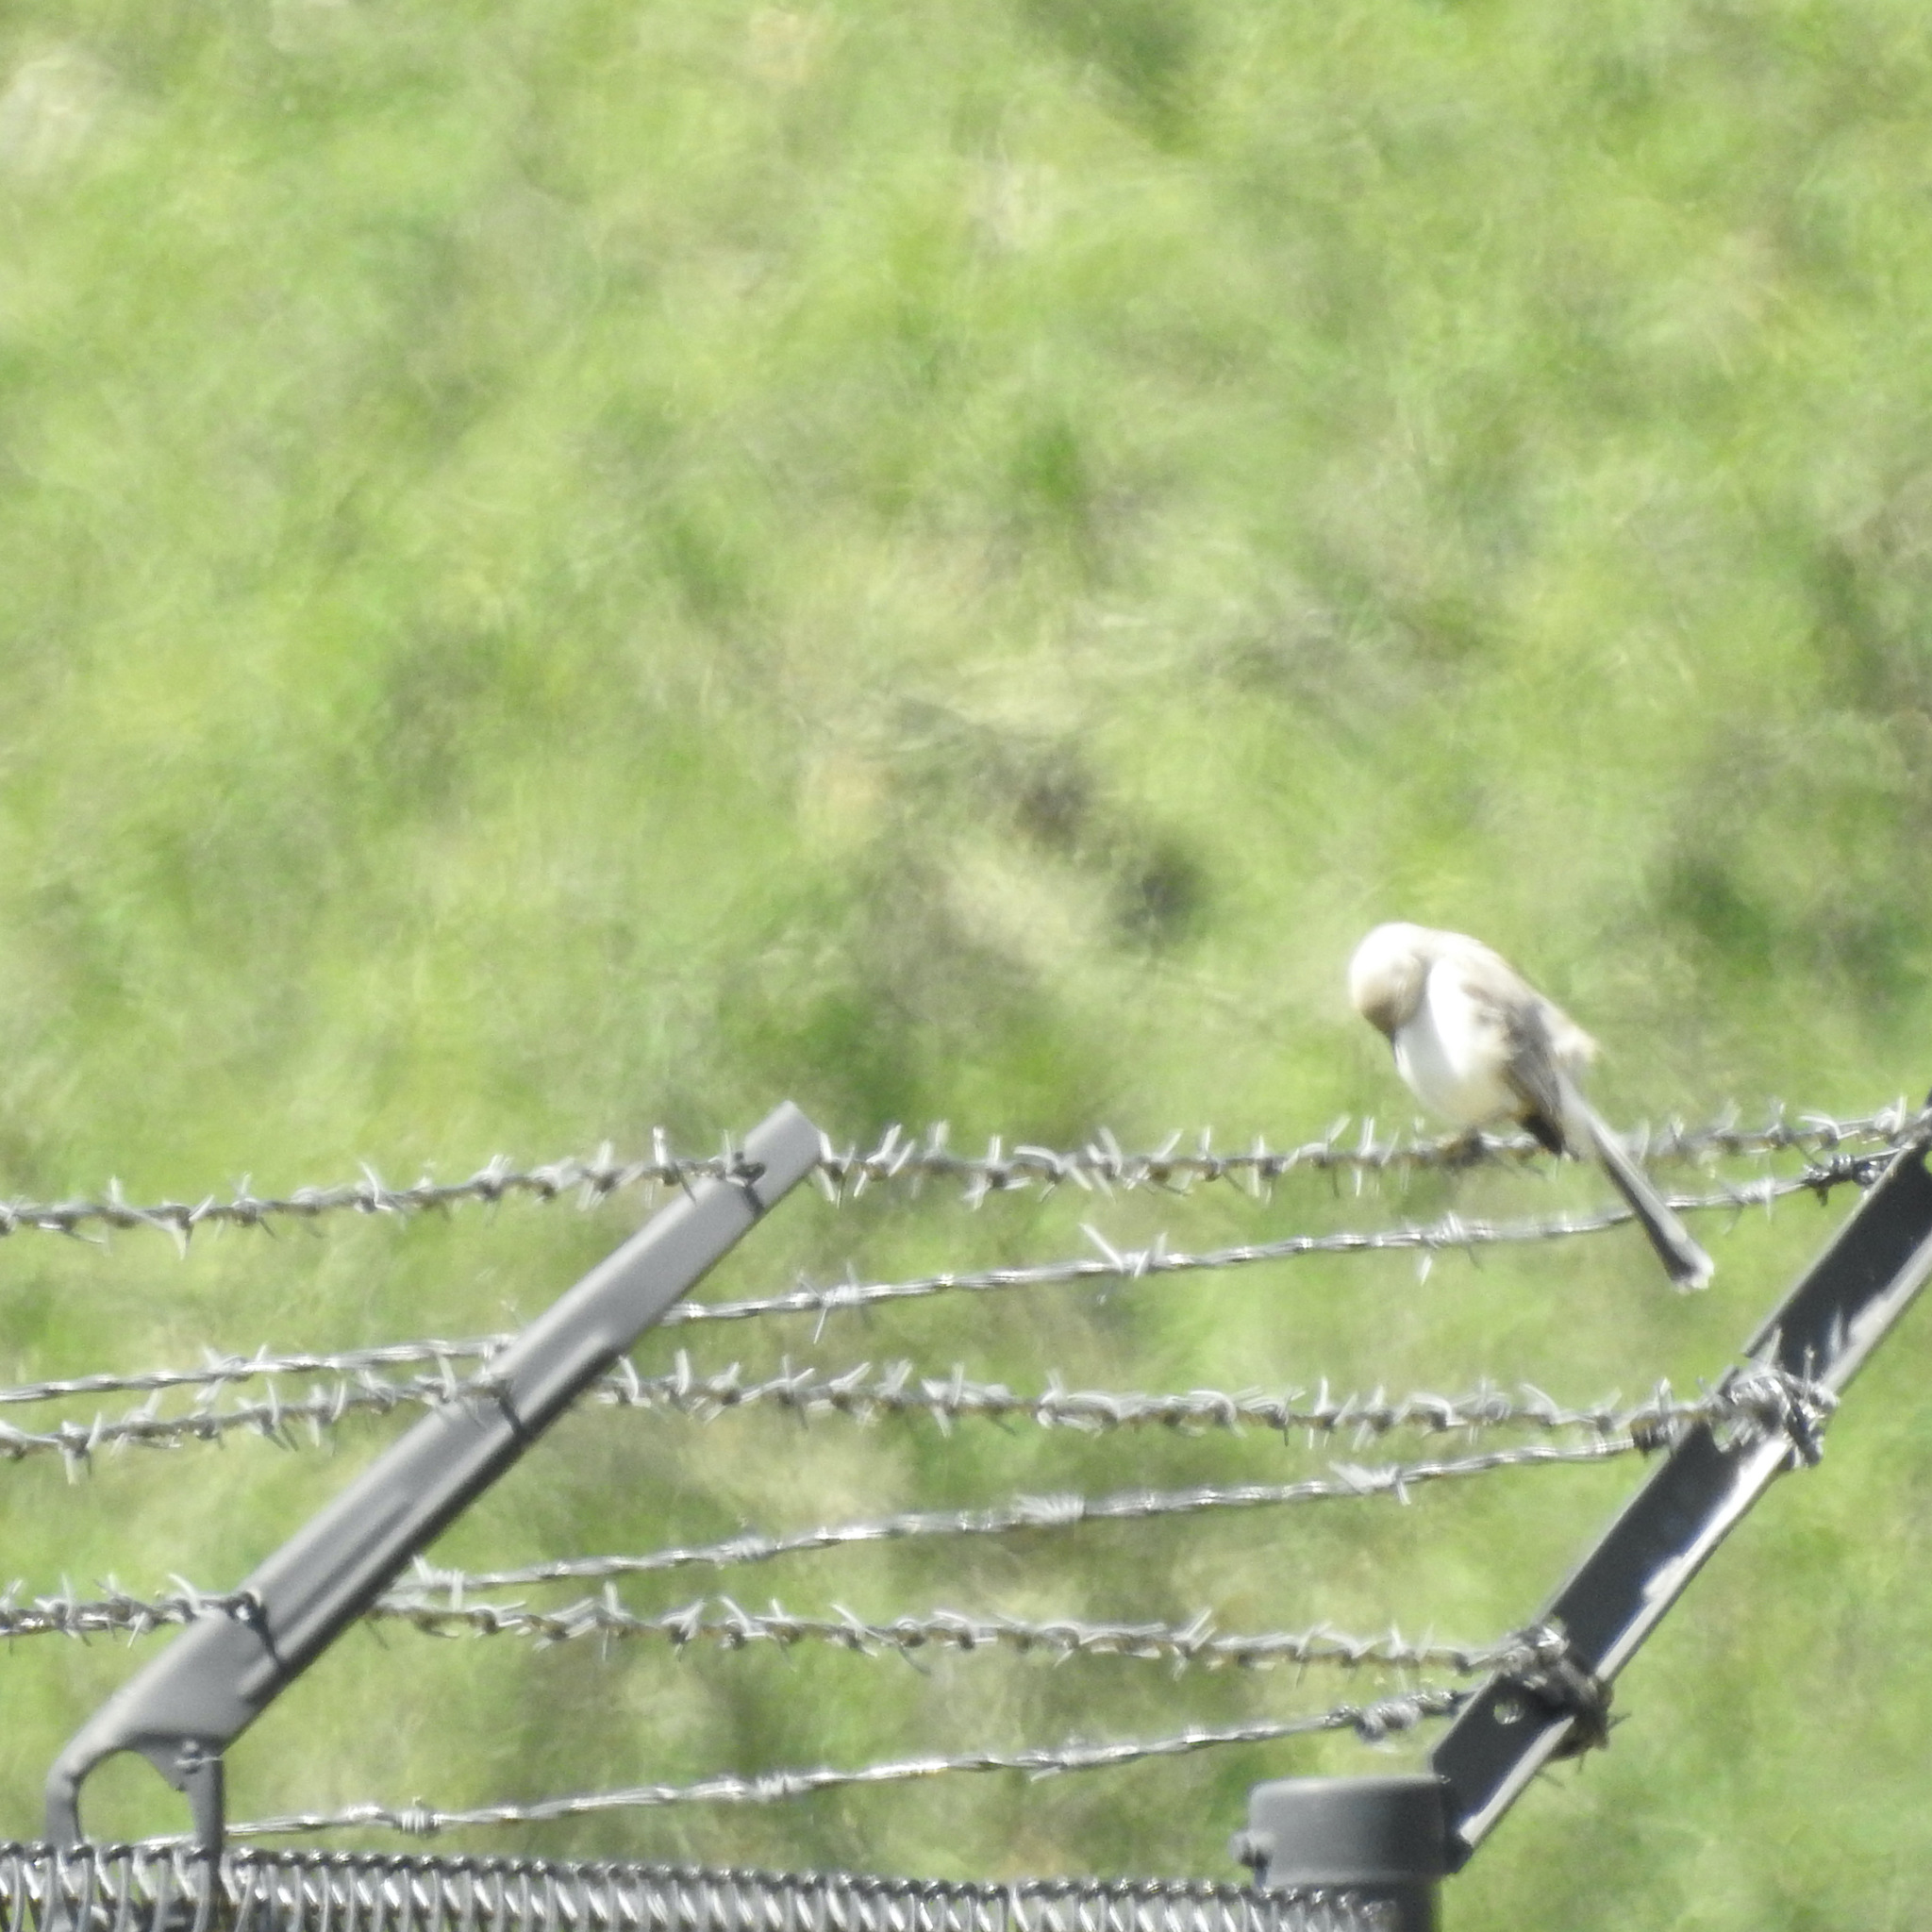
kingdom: Animalia
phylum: Chordata
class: Aves
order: Passeriformes
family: Mimidae
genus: Mimus
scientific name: Mimus polyglottos
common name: Northern mockingbird
